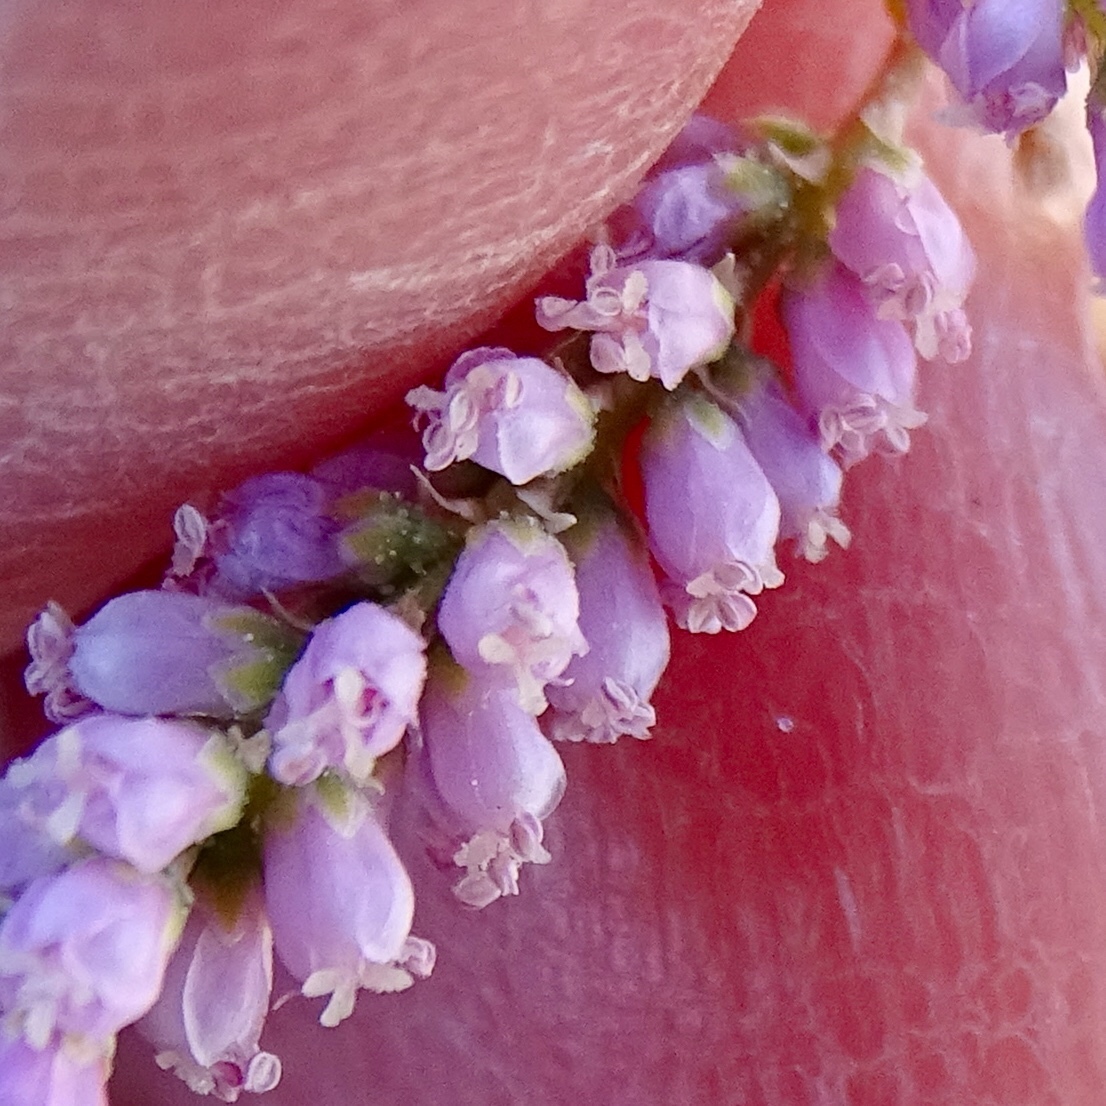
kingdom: Plantae
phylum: Tracheophyta
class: Magnoliopsida
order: Caryophyllales
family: Tamaricaceae
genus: Tamarix
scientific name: Tamarix ramosissima
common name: Pink tamarisk
